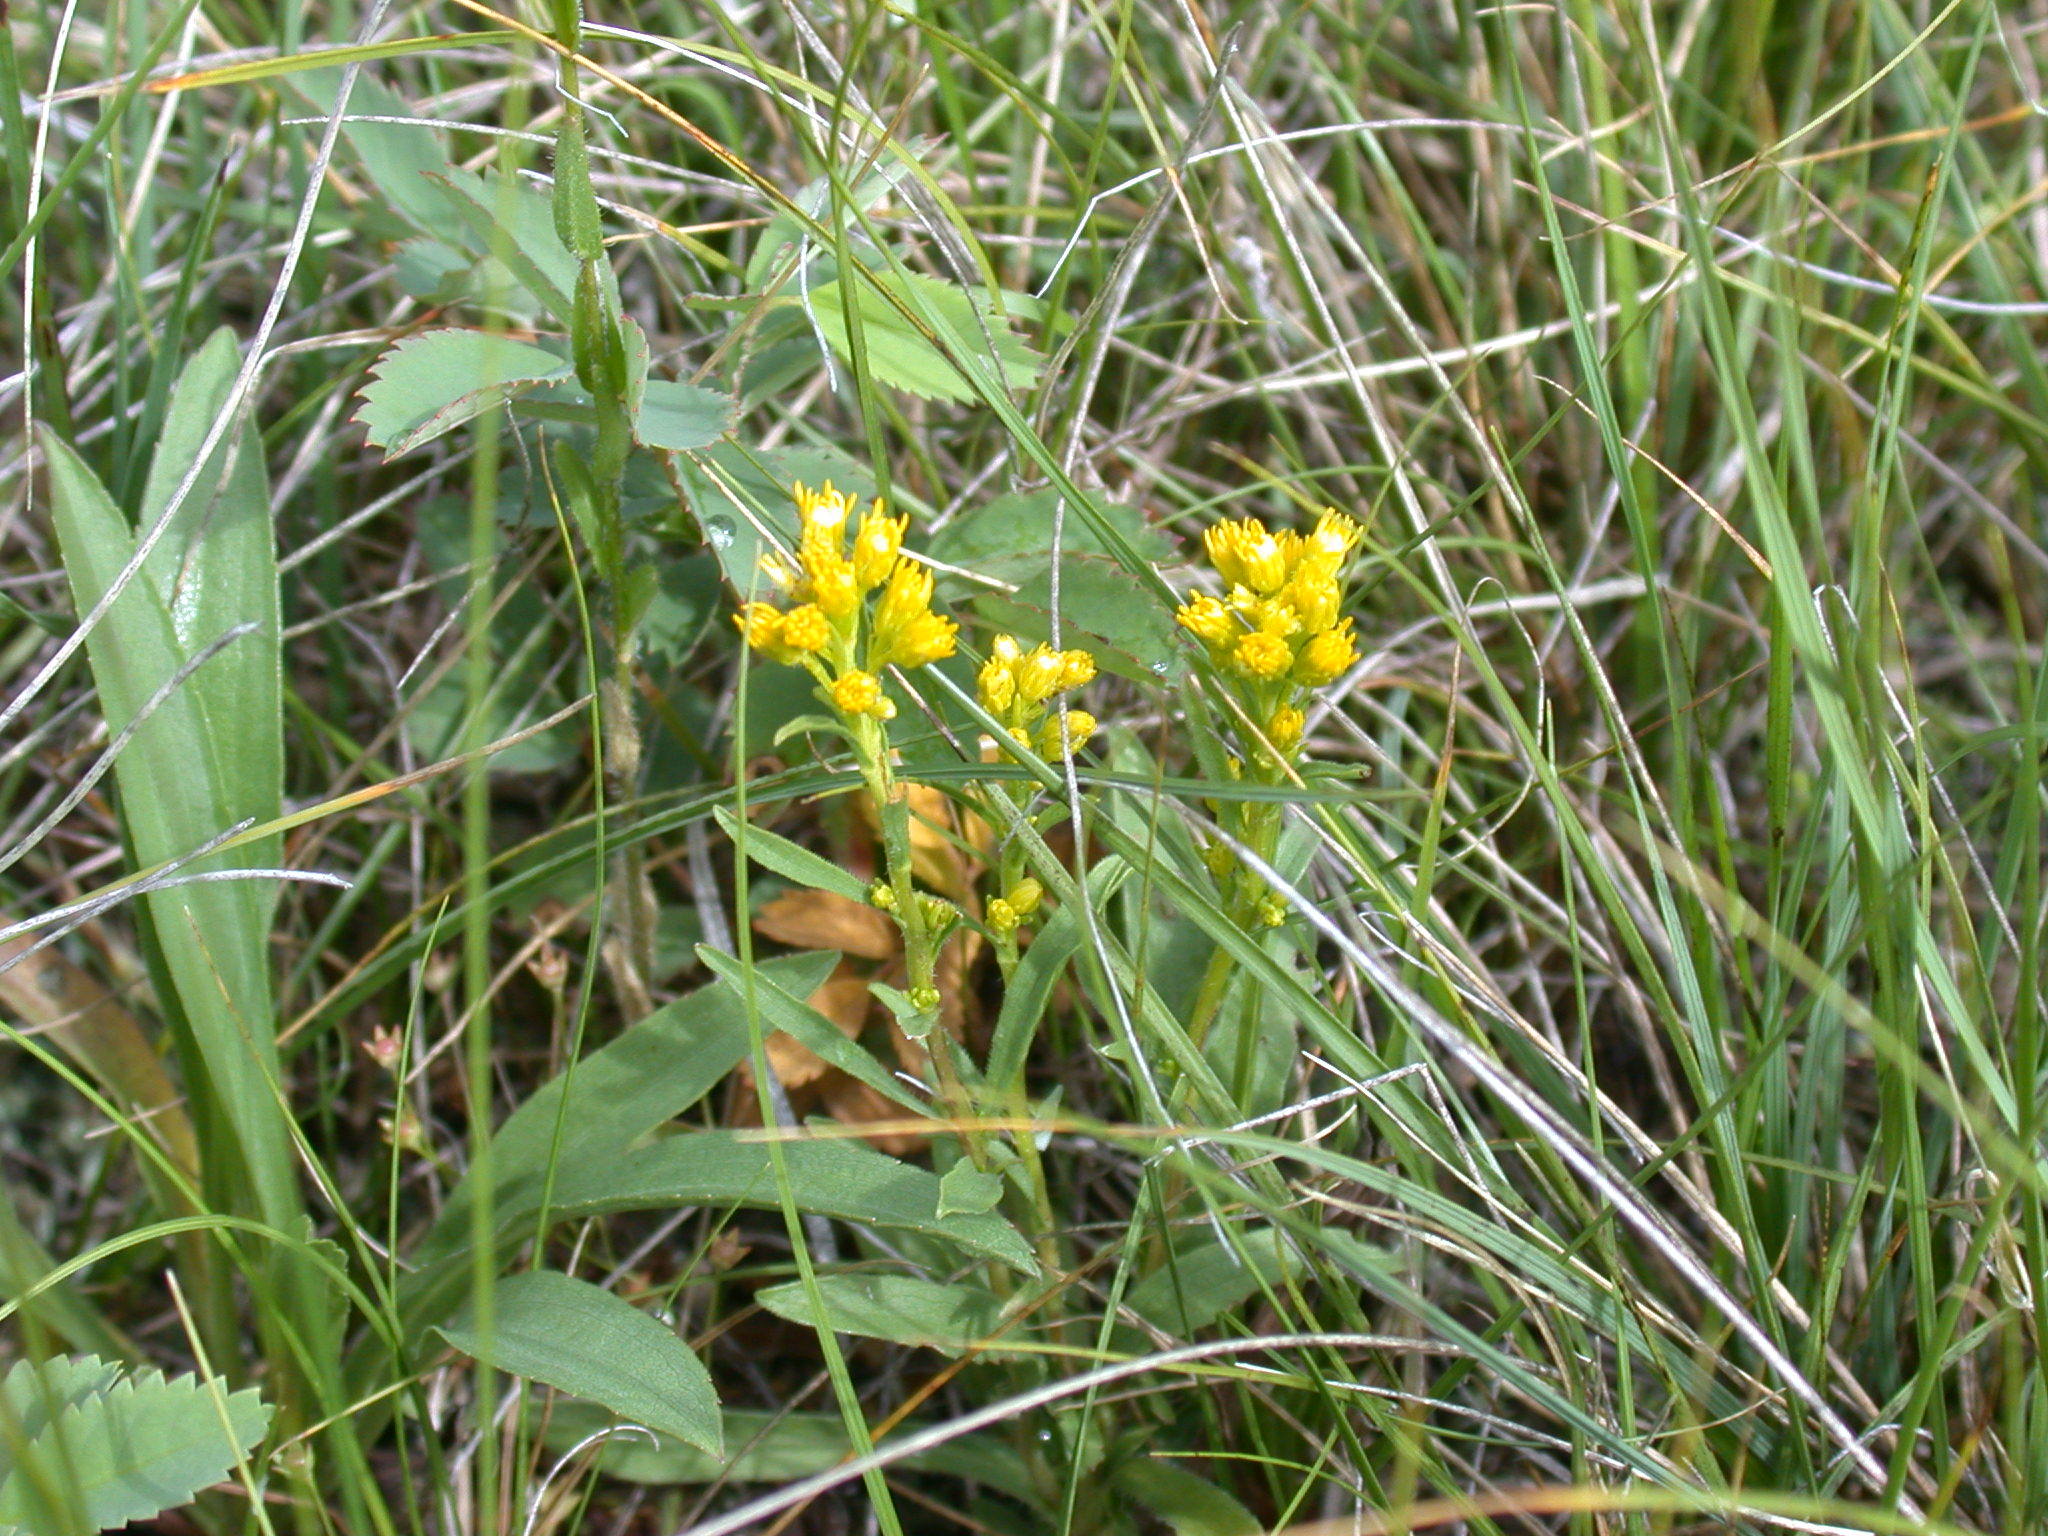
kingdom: Plantae
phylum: Tracheophyta
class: Magnoliopsida
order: Asterales
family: Asteraceae
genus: Solidago
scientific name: Solidago missouriensis
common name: Prairie goldenrod
